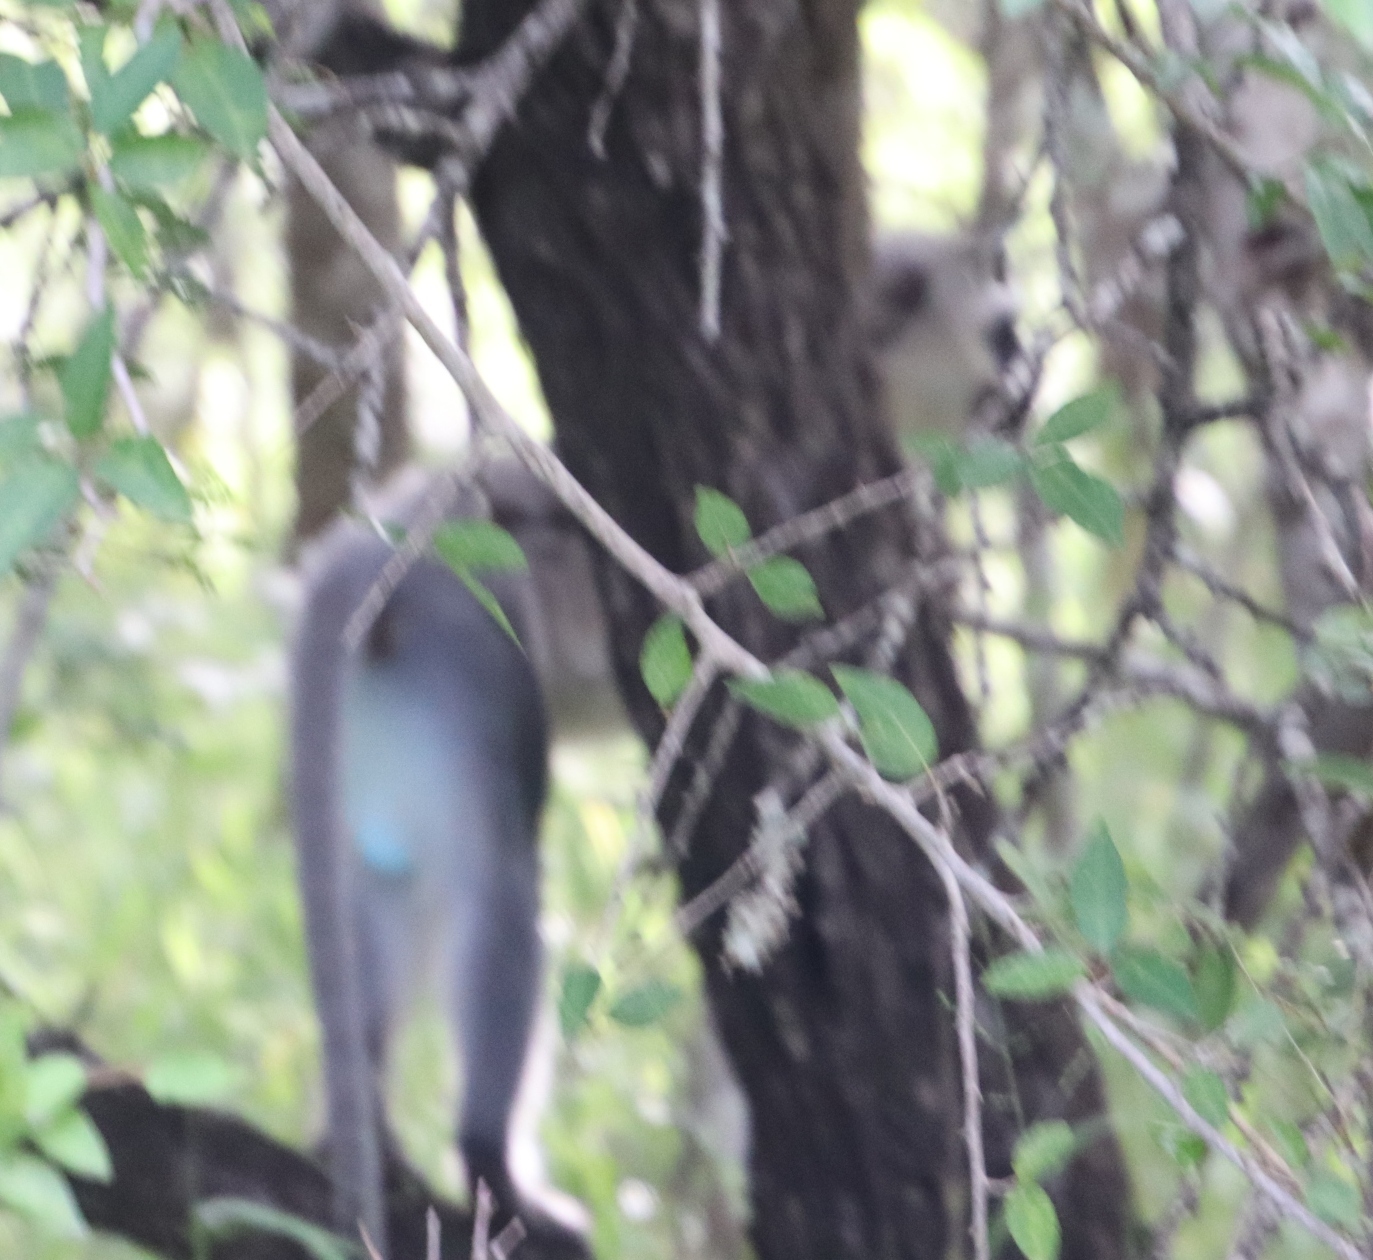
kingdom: Animalia
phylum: Chordata
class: Mammalia
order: Primates
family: Cercopithecidae
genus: Chlorocebus
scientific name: Chlorocebus pygerythrus
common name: Vervet monkey
